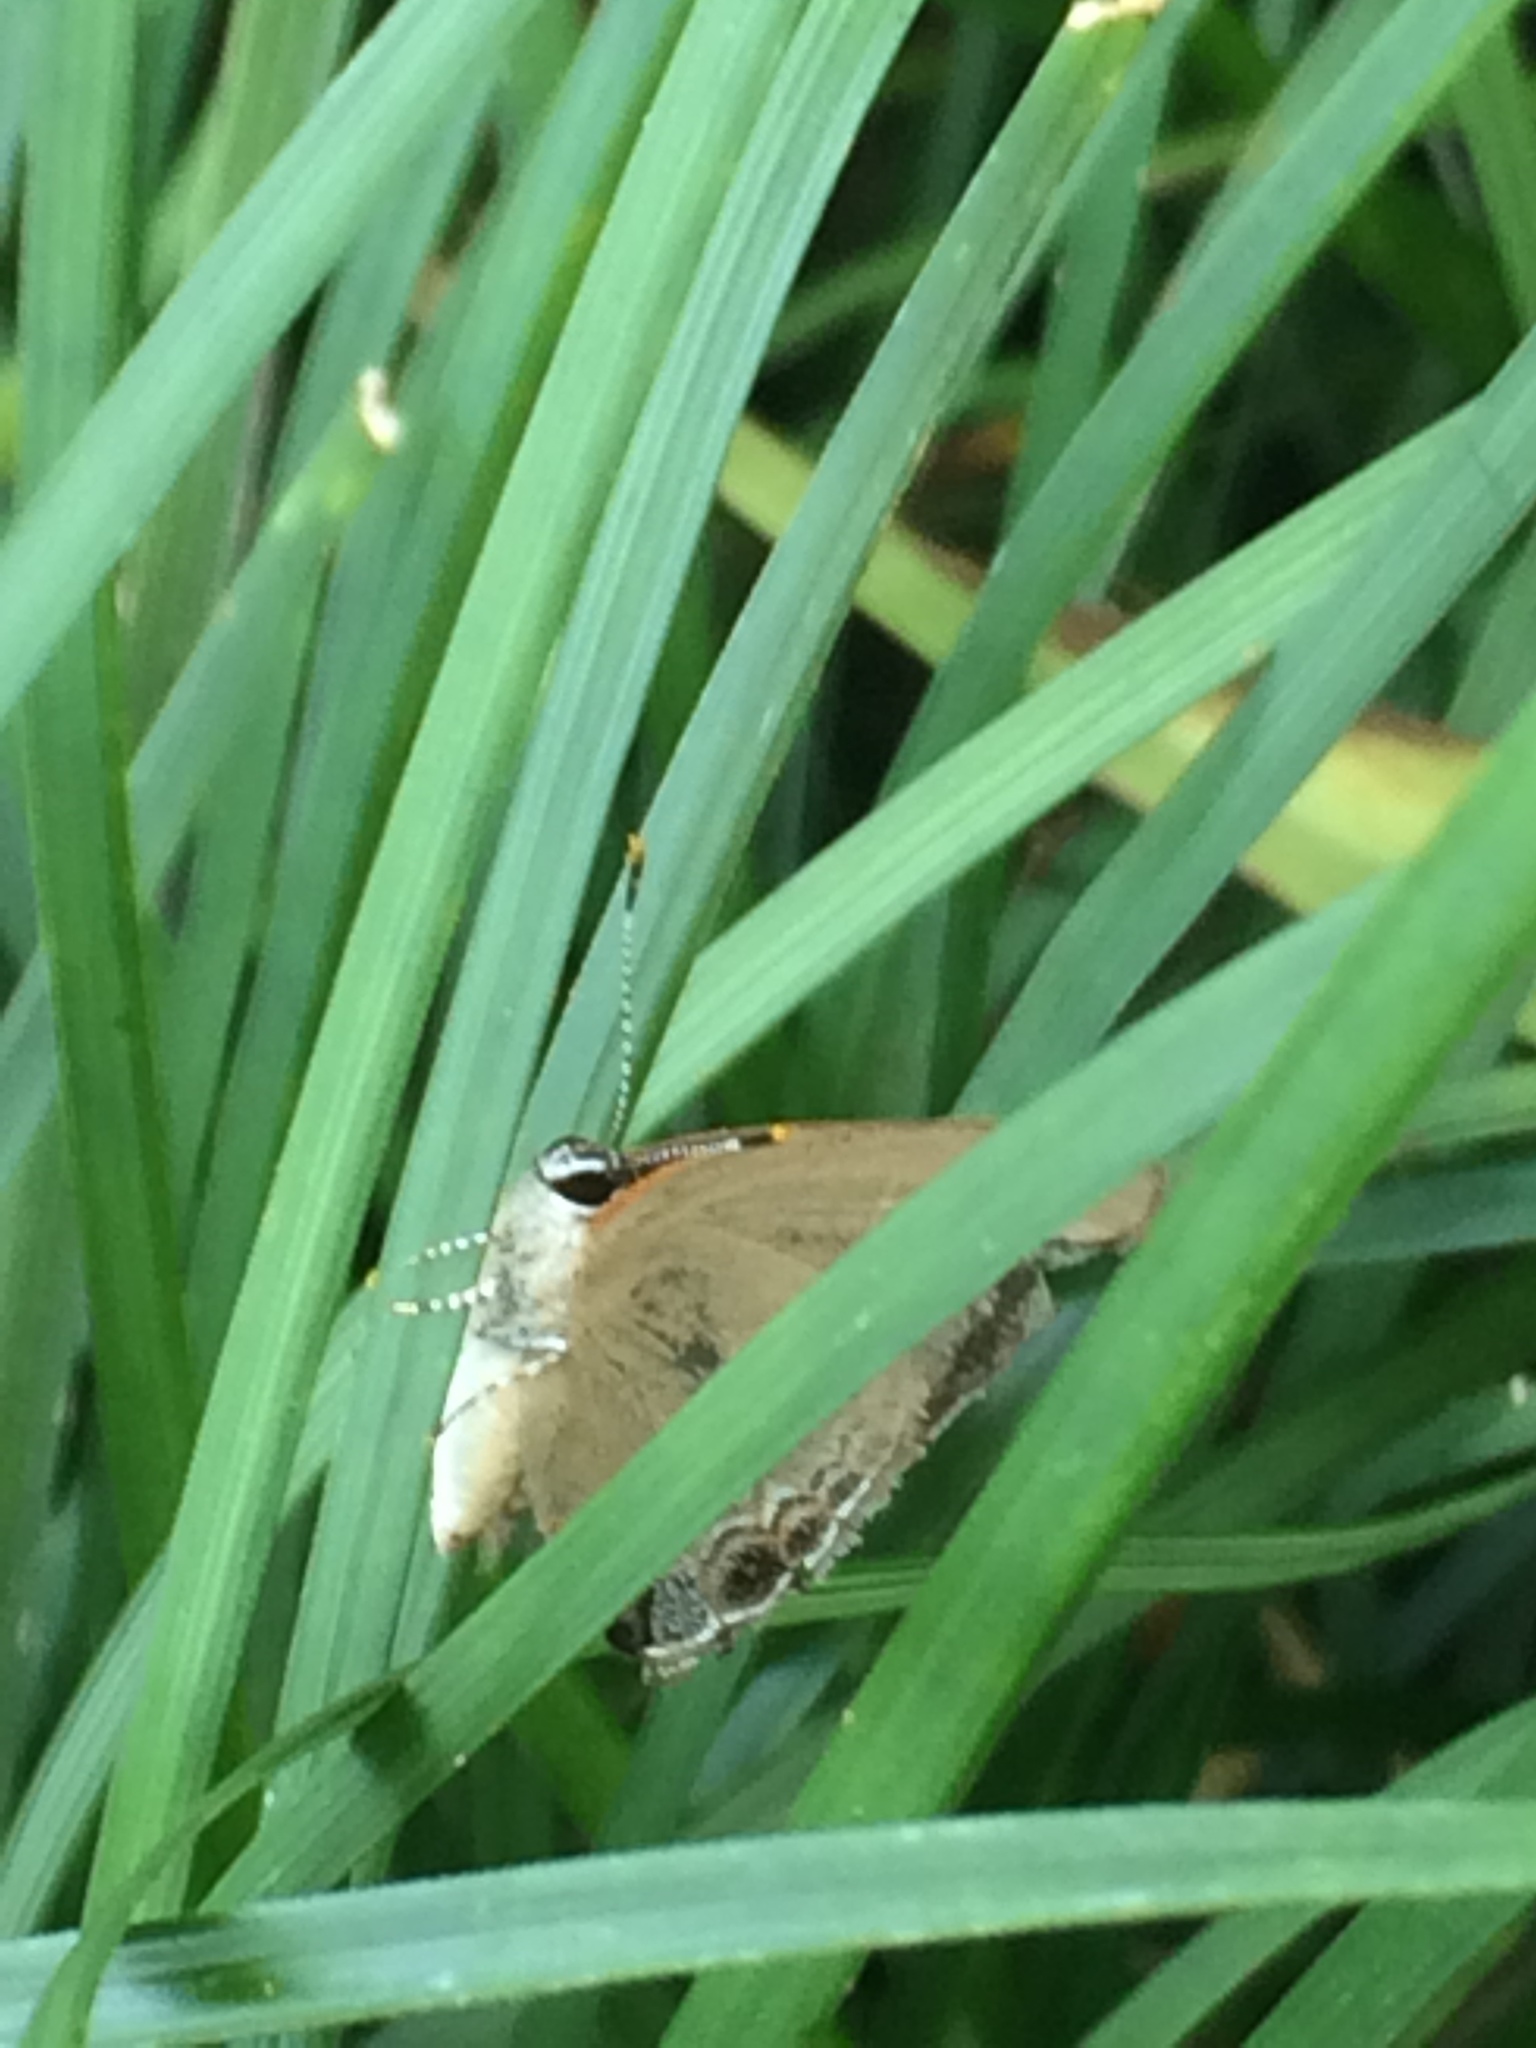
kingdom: Animalia
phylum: Arthropoda
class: Insecta
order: Lepidoptera
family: Lycaenidae
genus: Calycopis
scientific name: Calycopis cecrops
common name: Red-banded hairstreak
